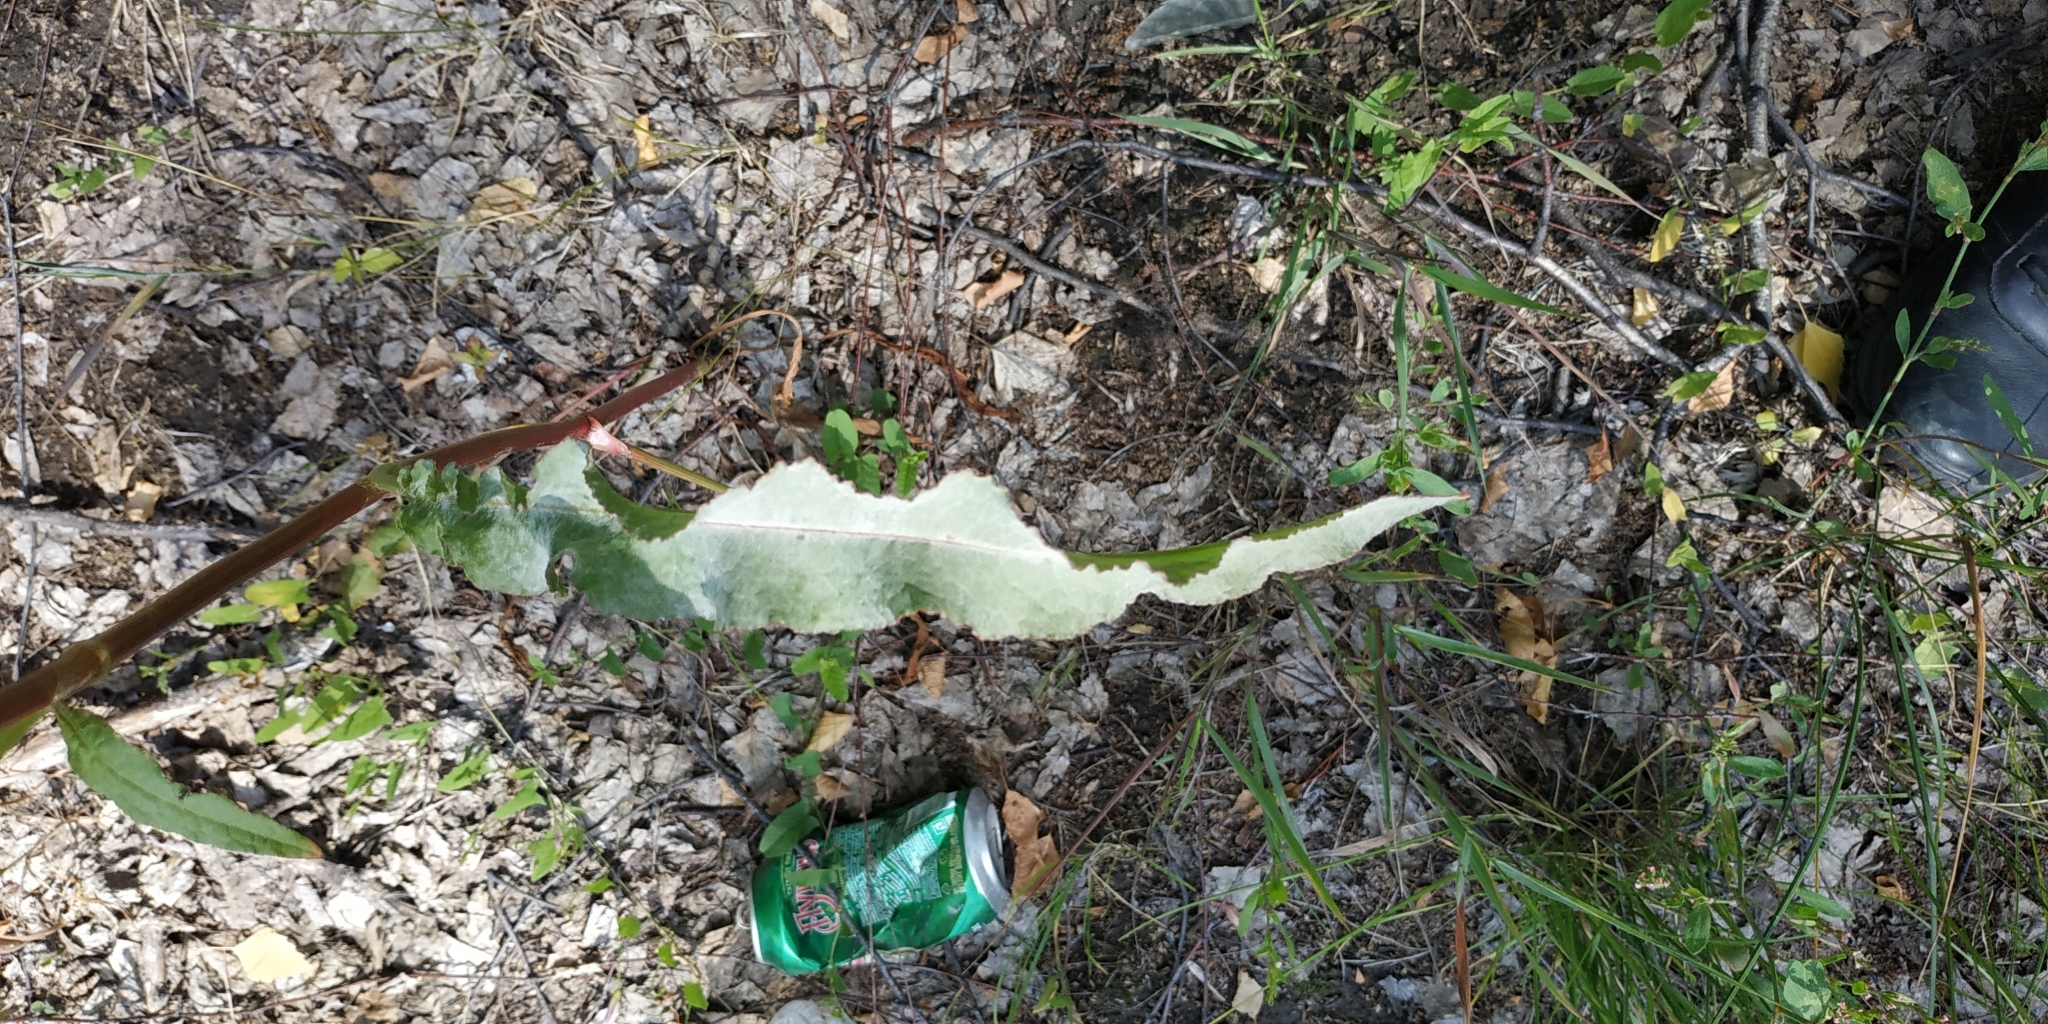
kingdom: Plantae
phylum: Tracheophyta
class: Magnoliopsida
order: Caryophyllales
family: Polygonaceae
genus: Rumex
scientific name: Rumex pseudonatronatus
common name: Field dock
